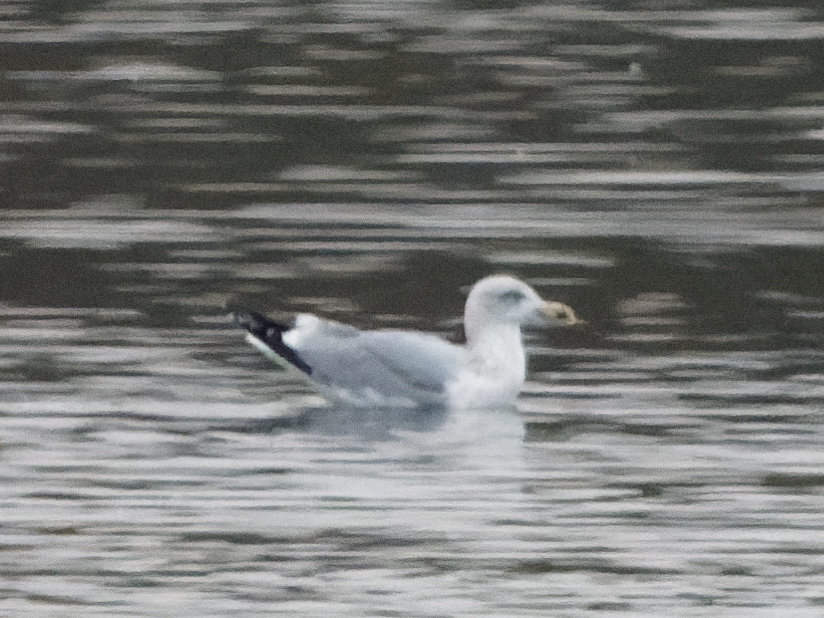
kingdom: Animalia
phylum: Chordata
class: Aves
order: Charadriiformes
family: Laridae
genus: Larus
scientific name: Larus argentatus
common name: Herring gull
